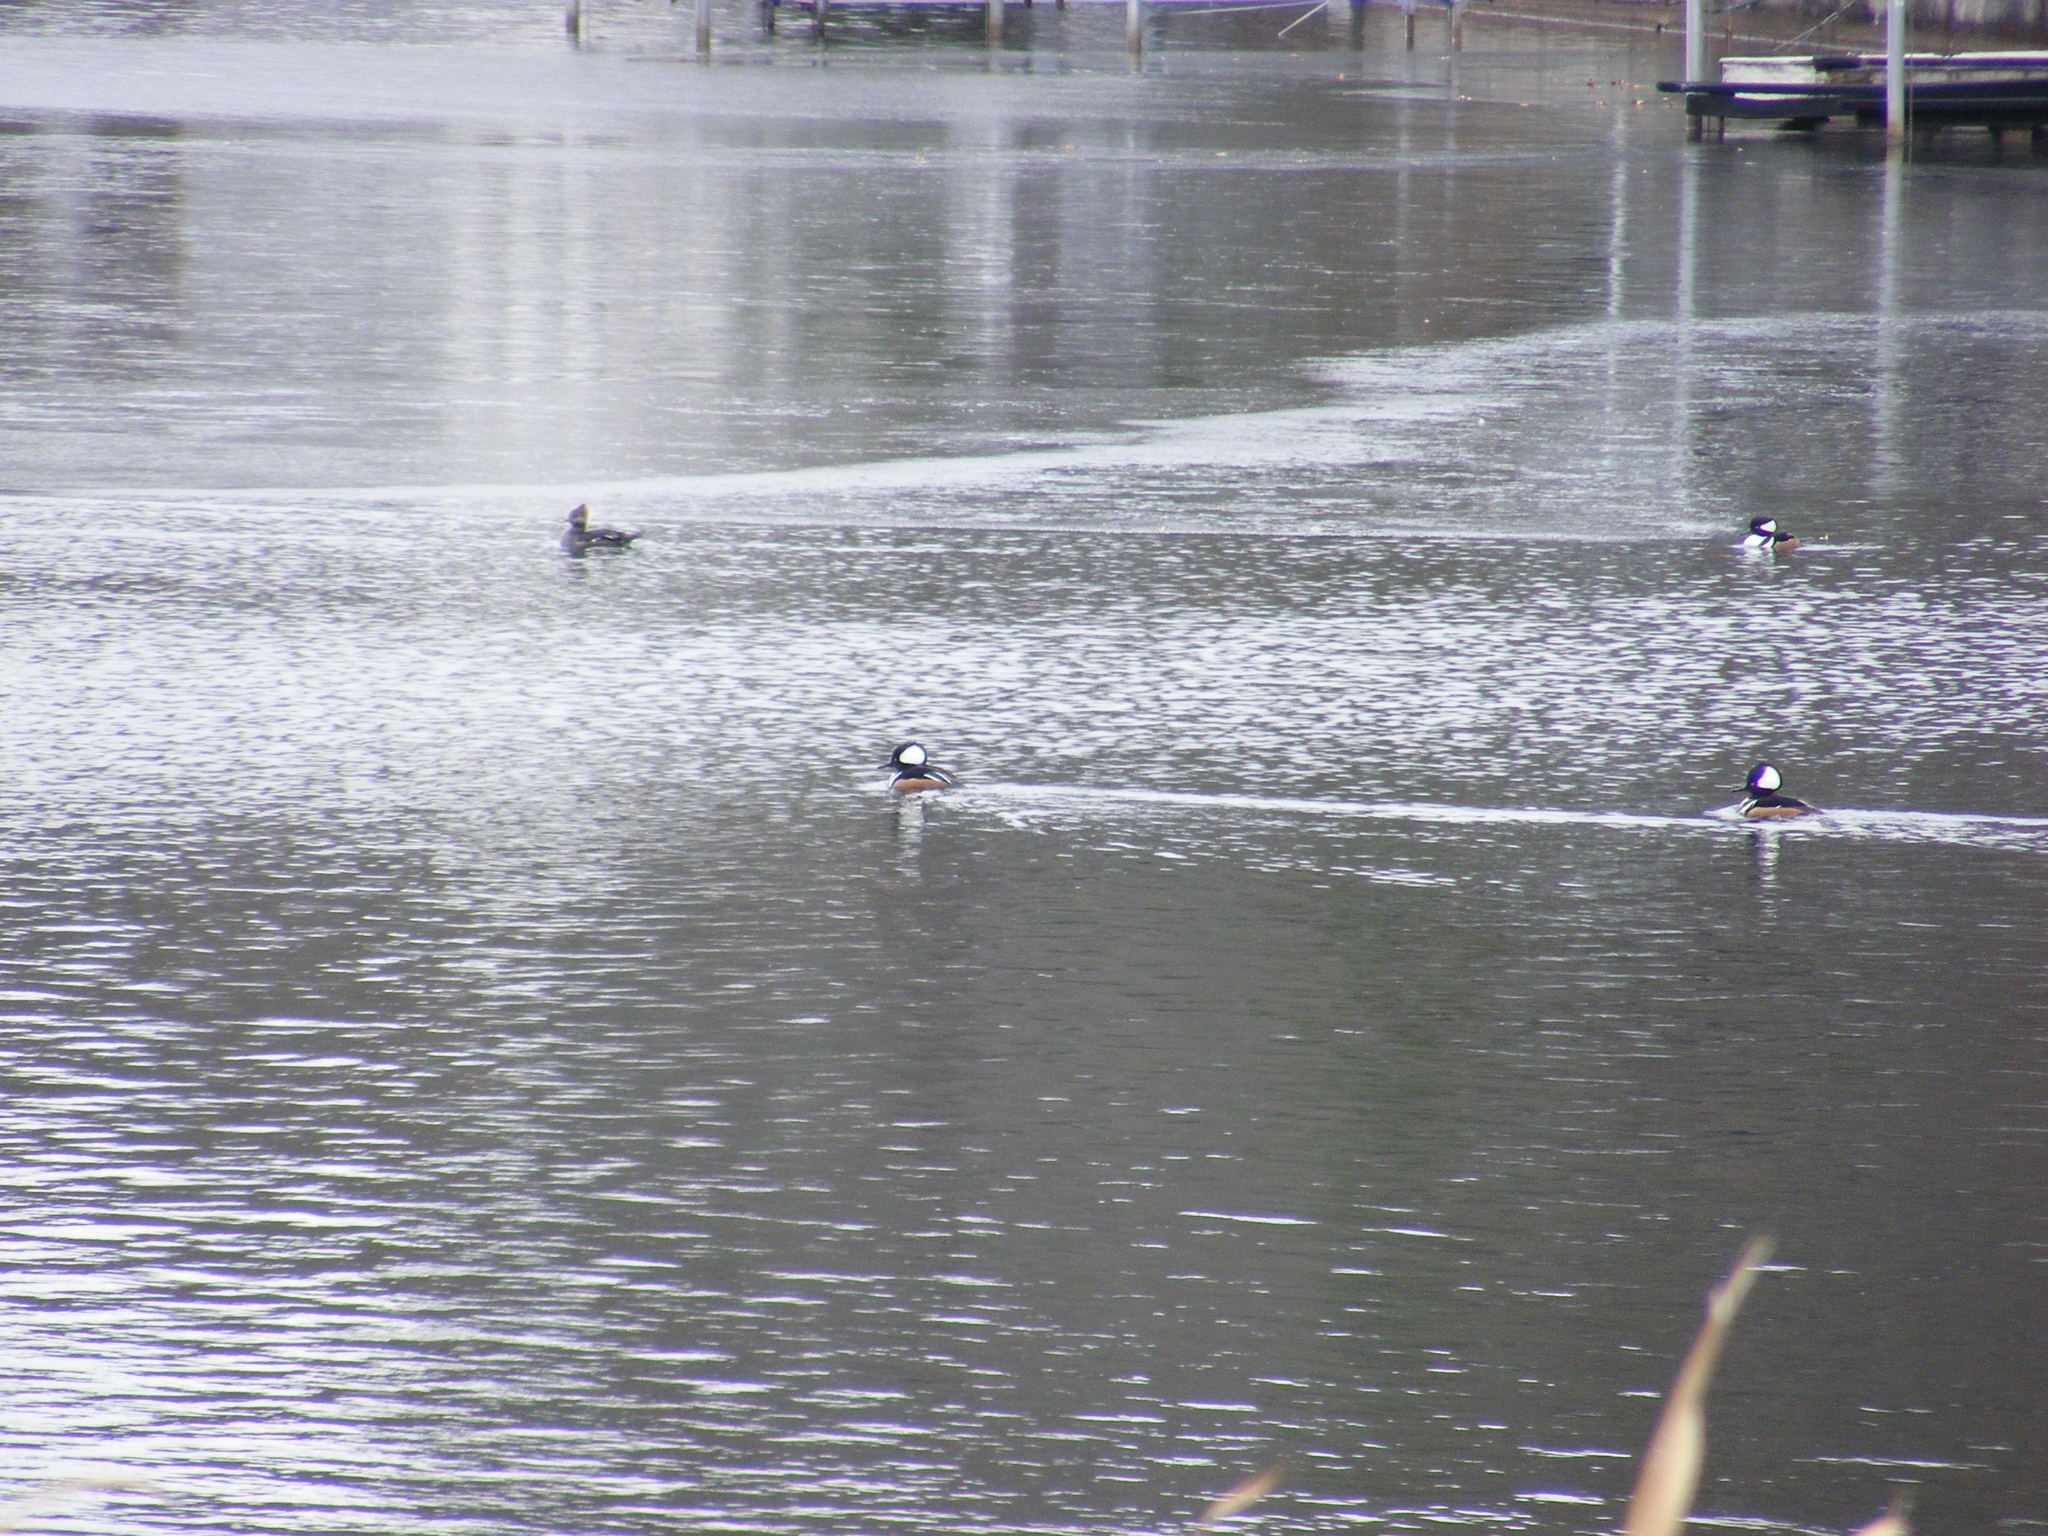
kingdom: Animalia
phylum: Chordata
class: Aves
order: Anseriformes
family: Anatidae
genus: Lophodytes
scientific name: Lophodytes cucullatus
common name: Hooded merganser
